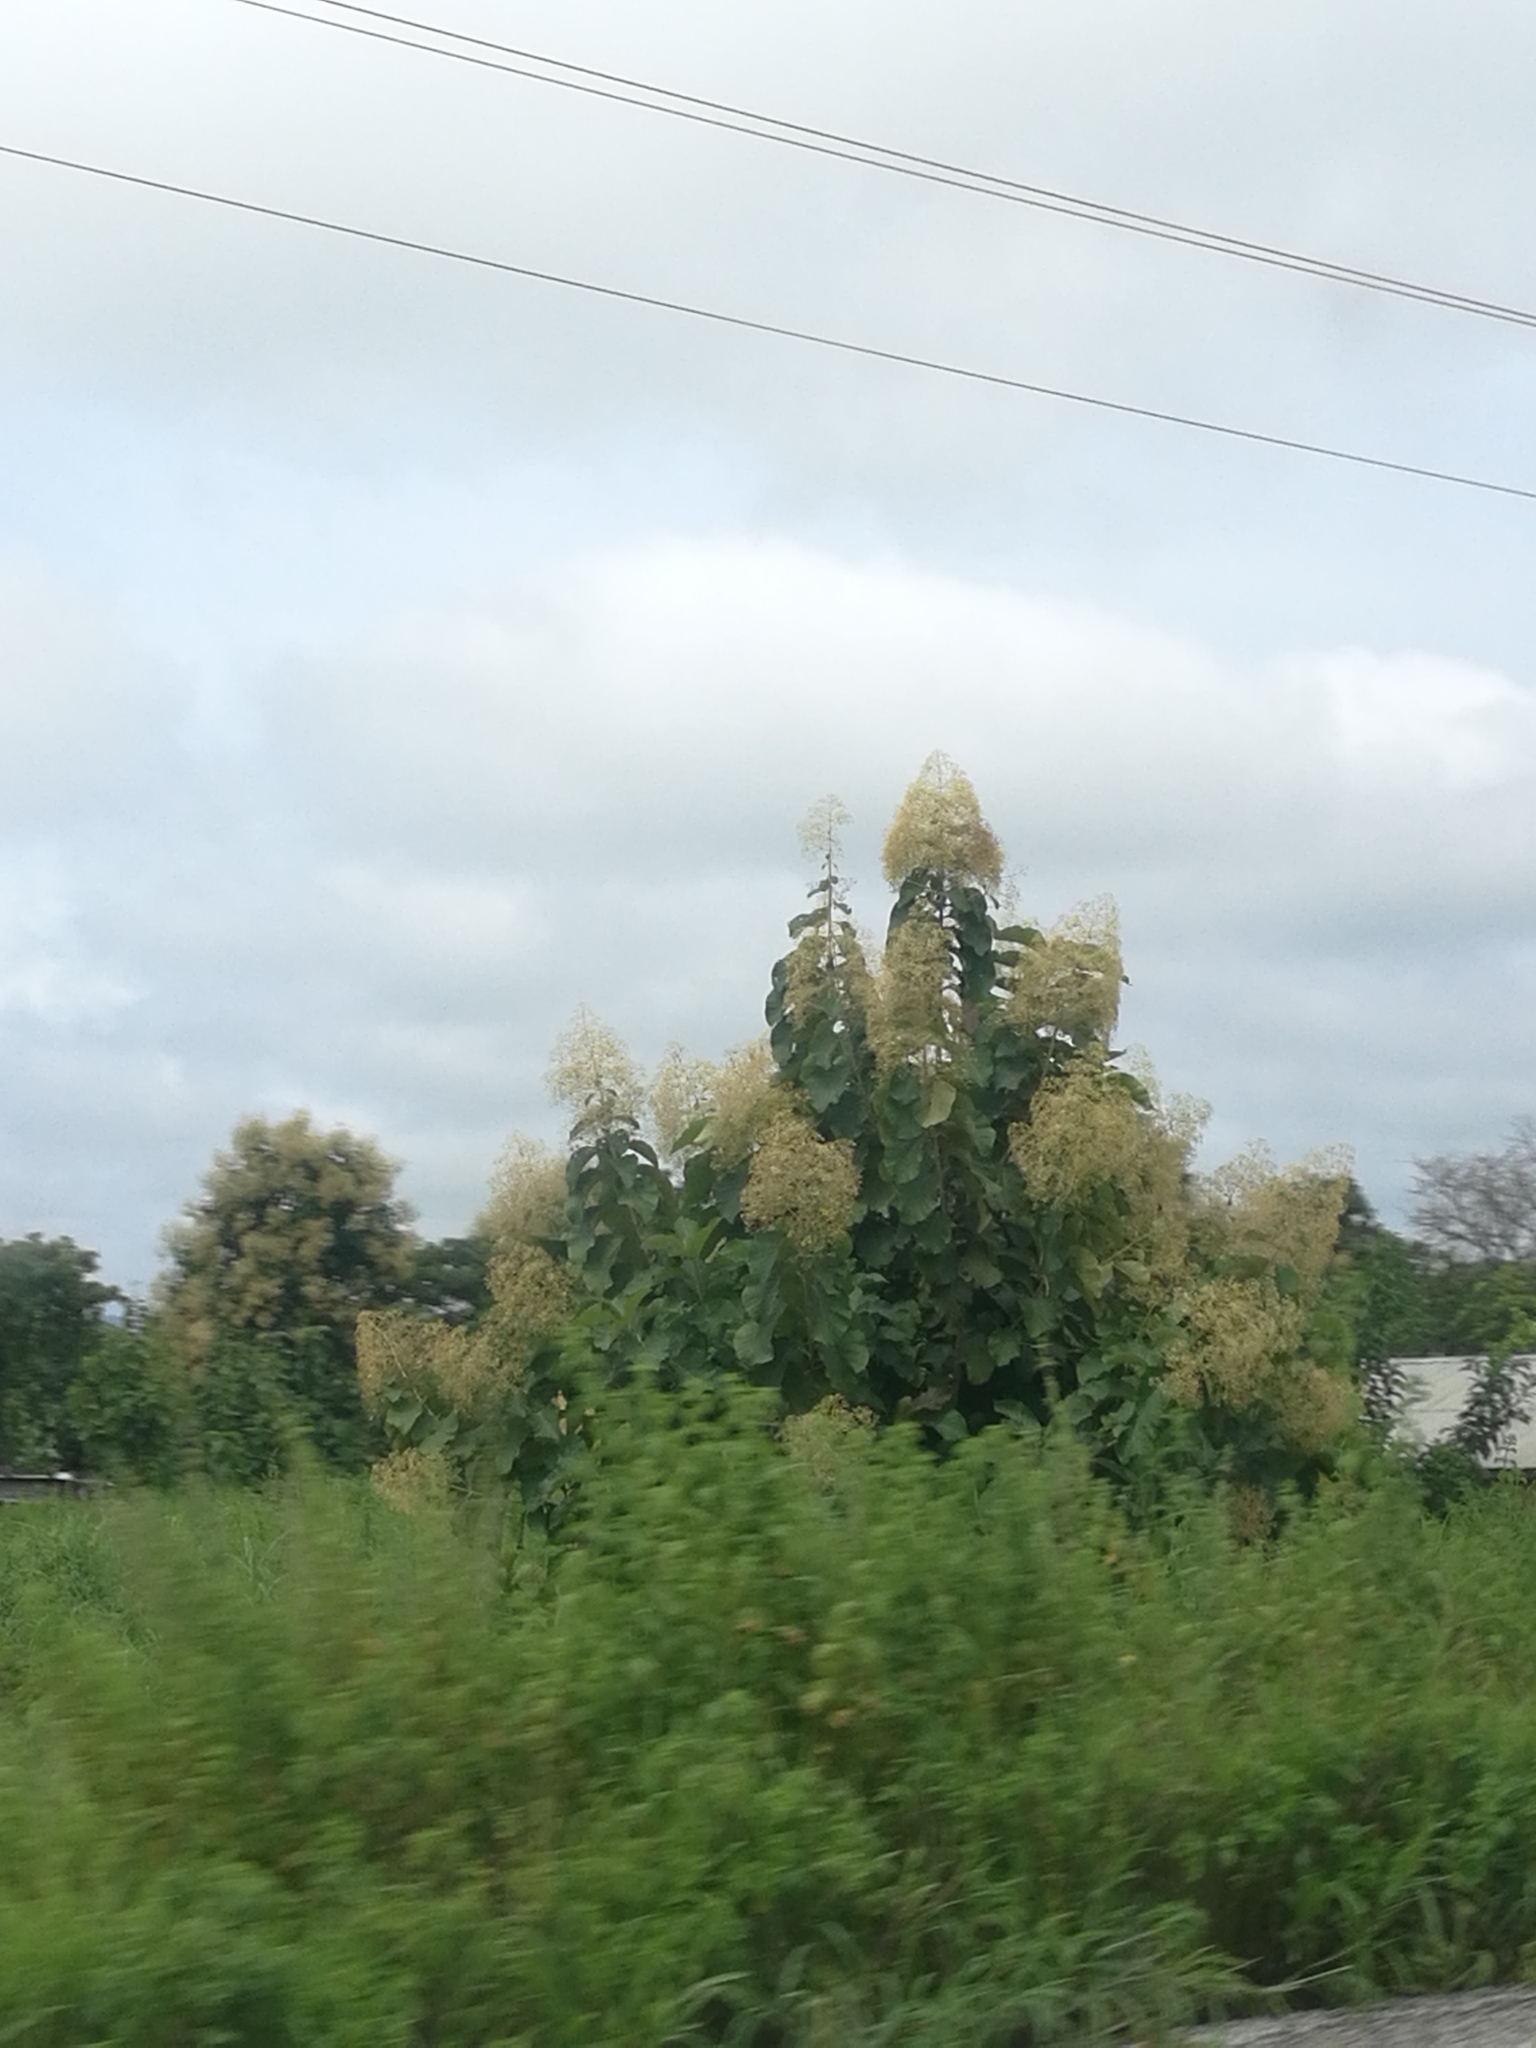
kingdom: Plantae
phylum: Tracheophyta
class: Magnoliopsida
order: Lamiales
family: Lamiaceae
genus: Tectona
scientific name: Tectona grandis
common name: Teak
